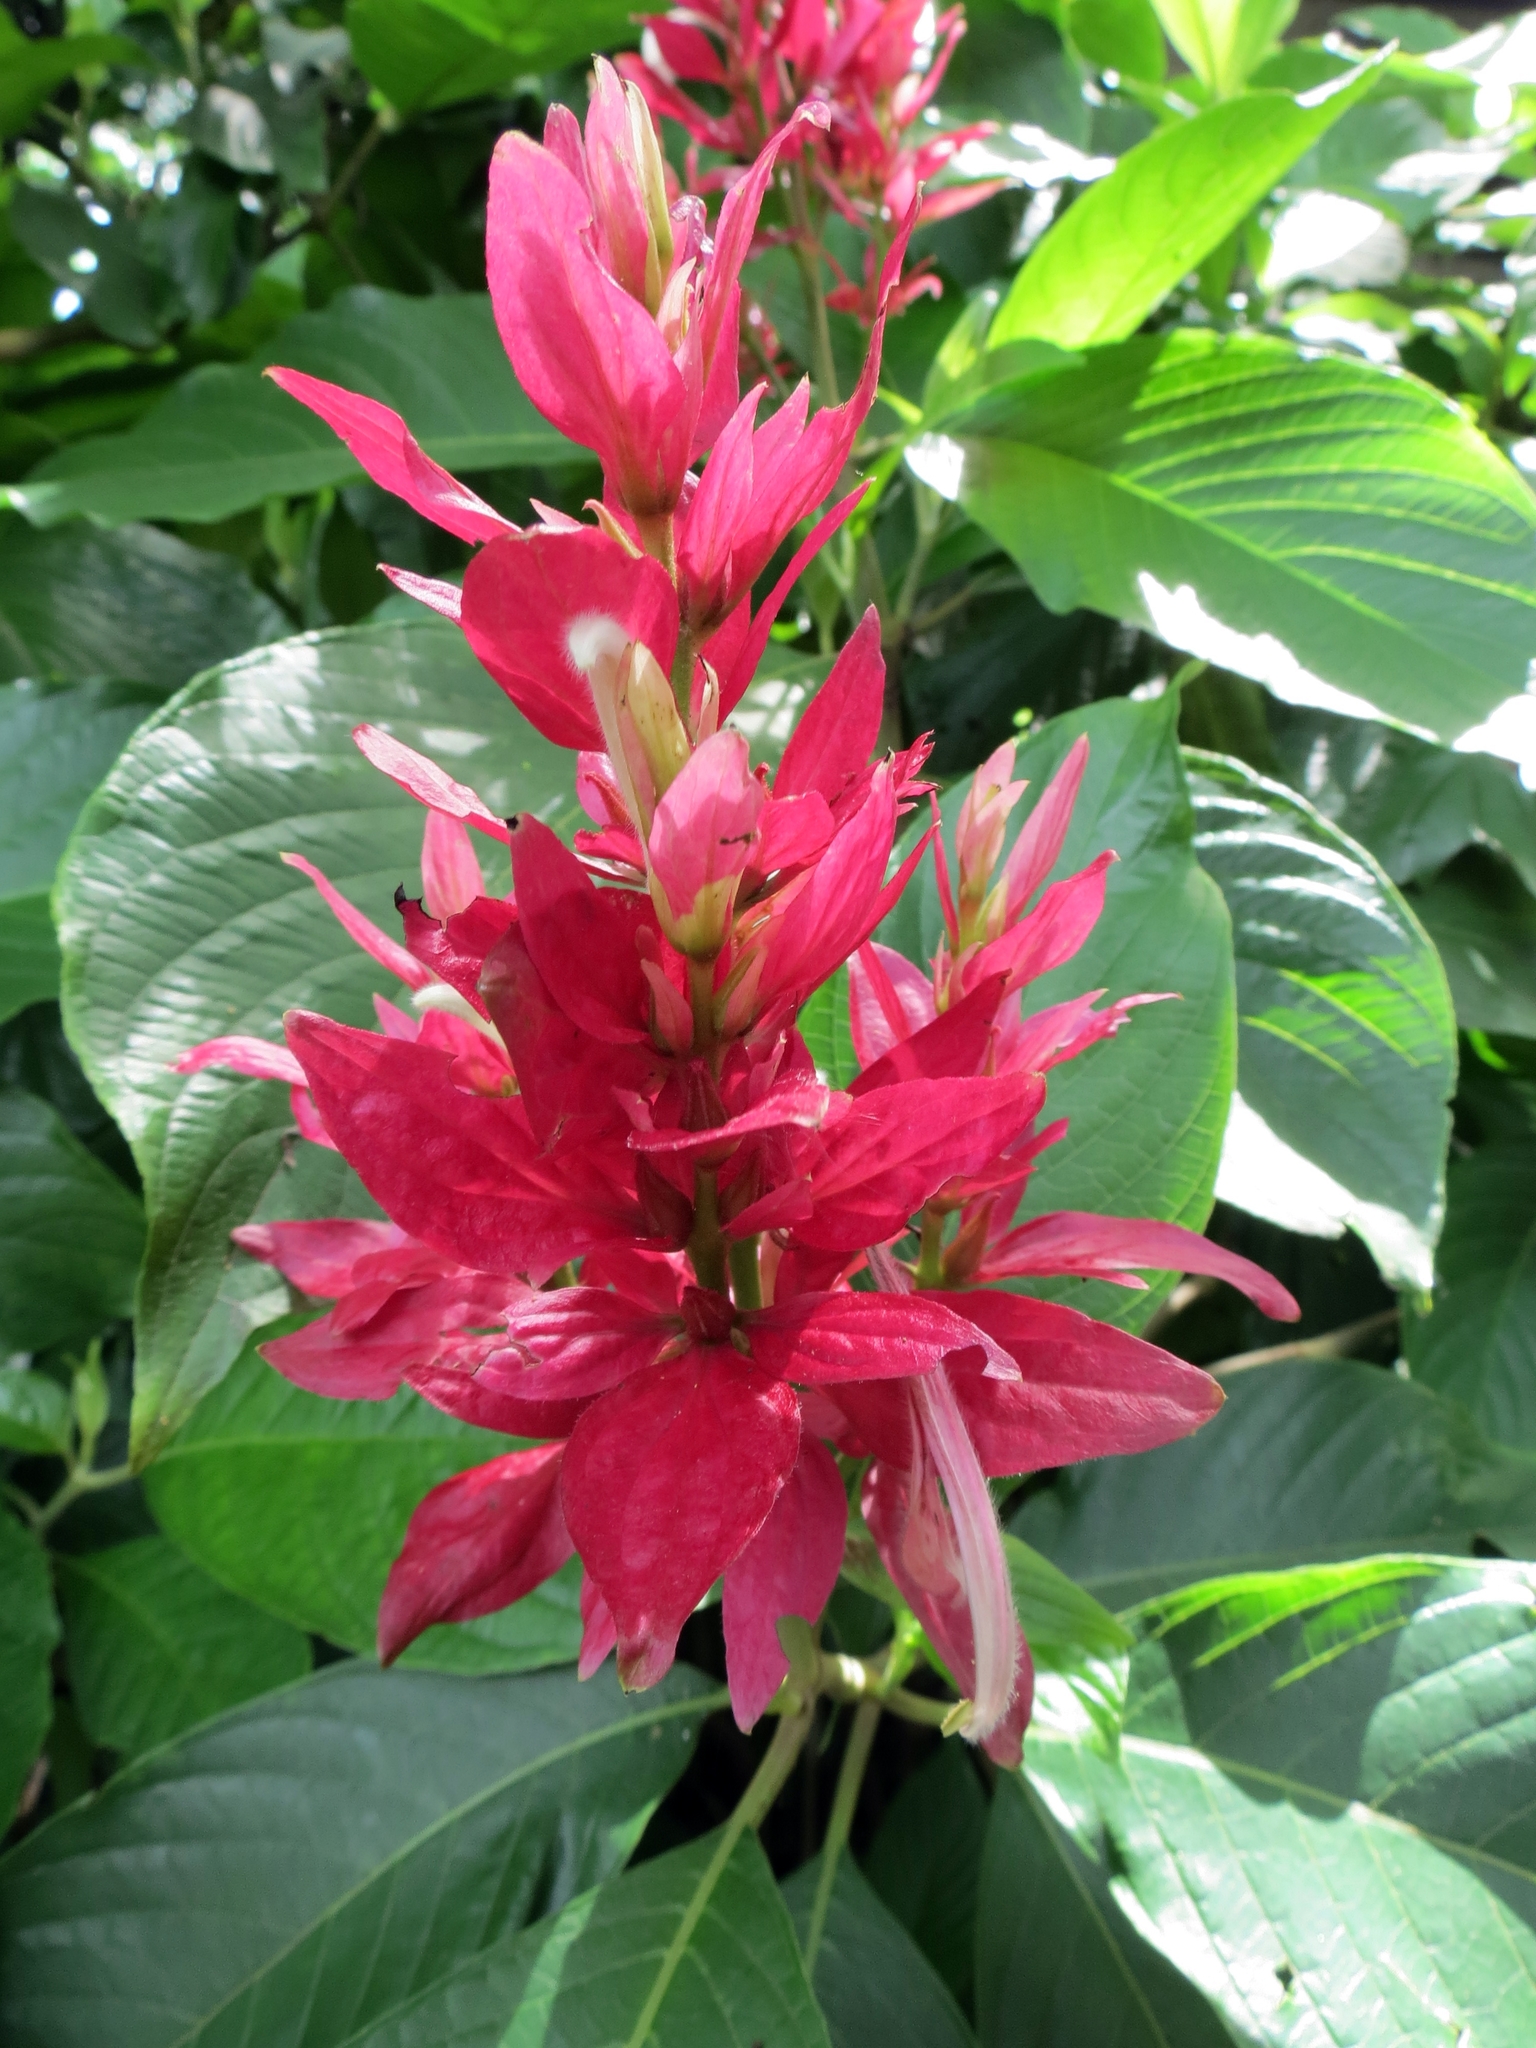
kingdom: Plantae
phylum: Tracheophyta
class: Magnoliopsida
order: Lamiales
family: Acanthaceae
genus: Megaskepasma
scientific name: Megaskepasma erythrochlamys
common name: Brazilian red-cloak
